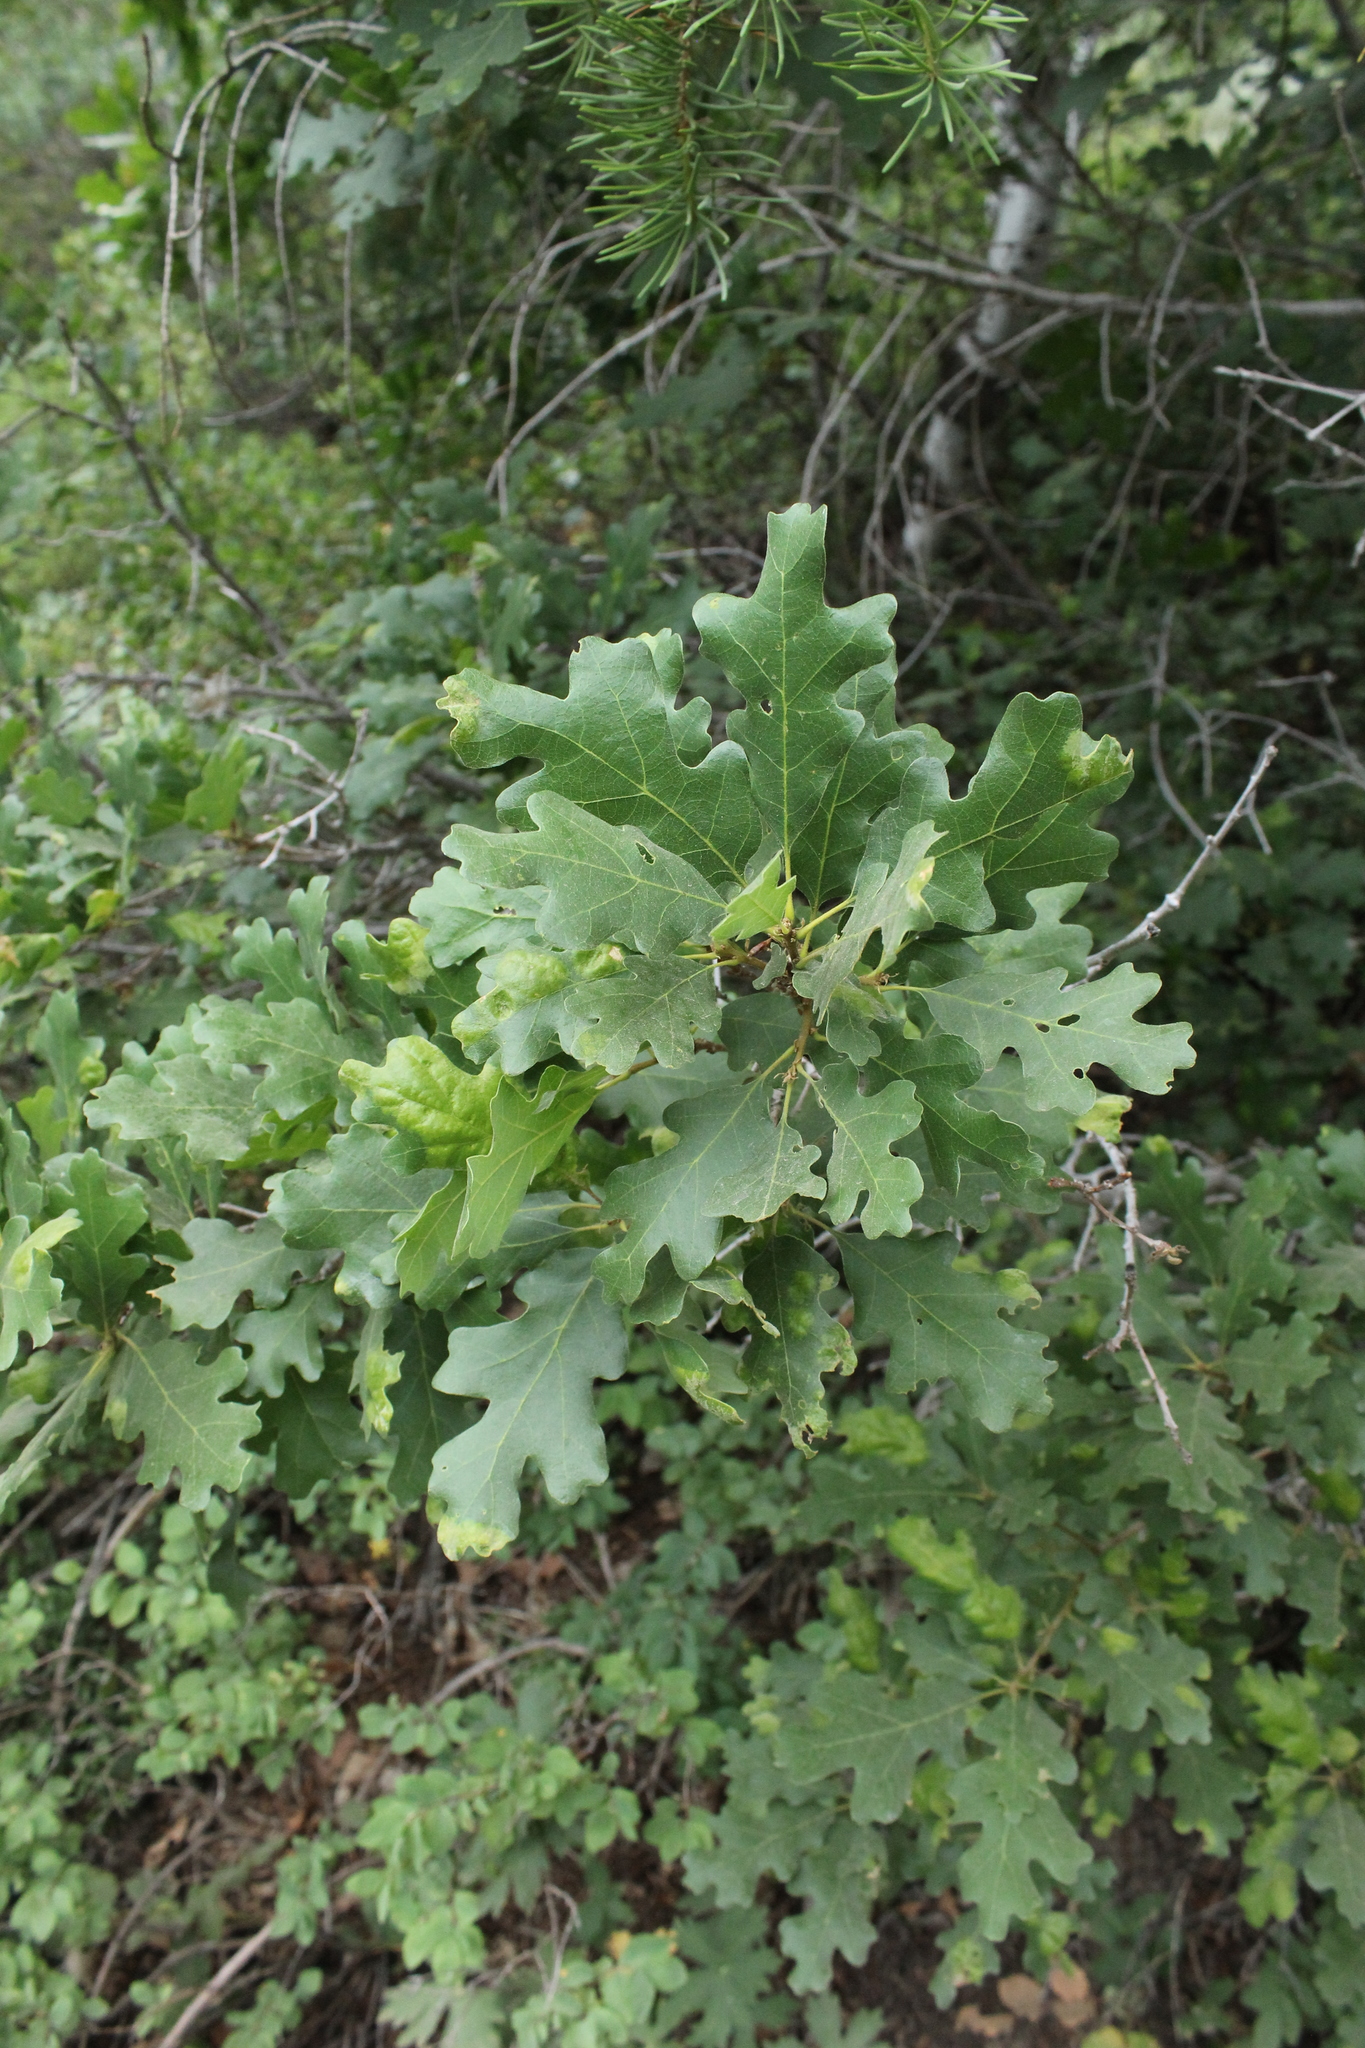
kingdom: Plantae
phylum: Tracheophyta
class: Magnoliopsida
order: Fagales
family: Fagaceae
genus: Quercus
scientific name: Quercus gambelii
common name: Gambel oak
